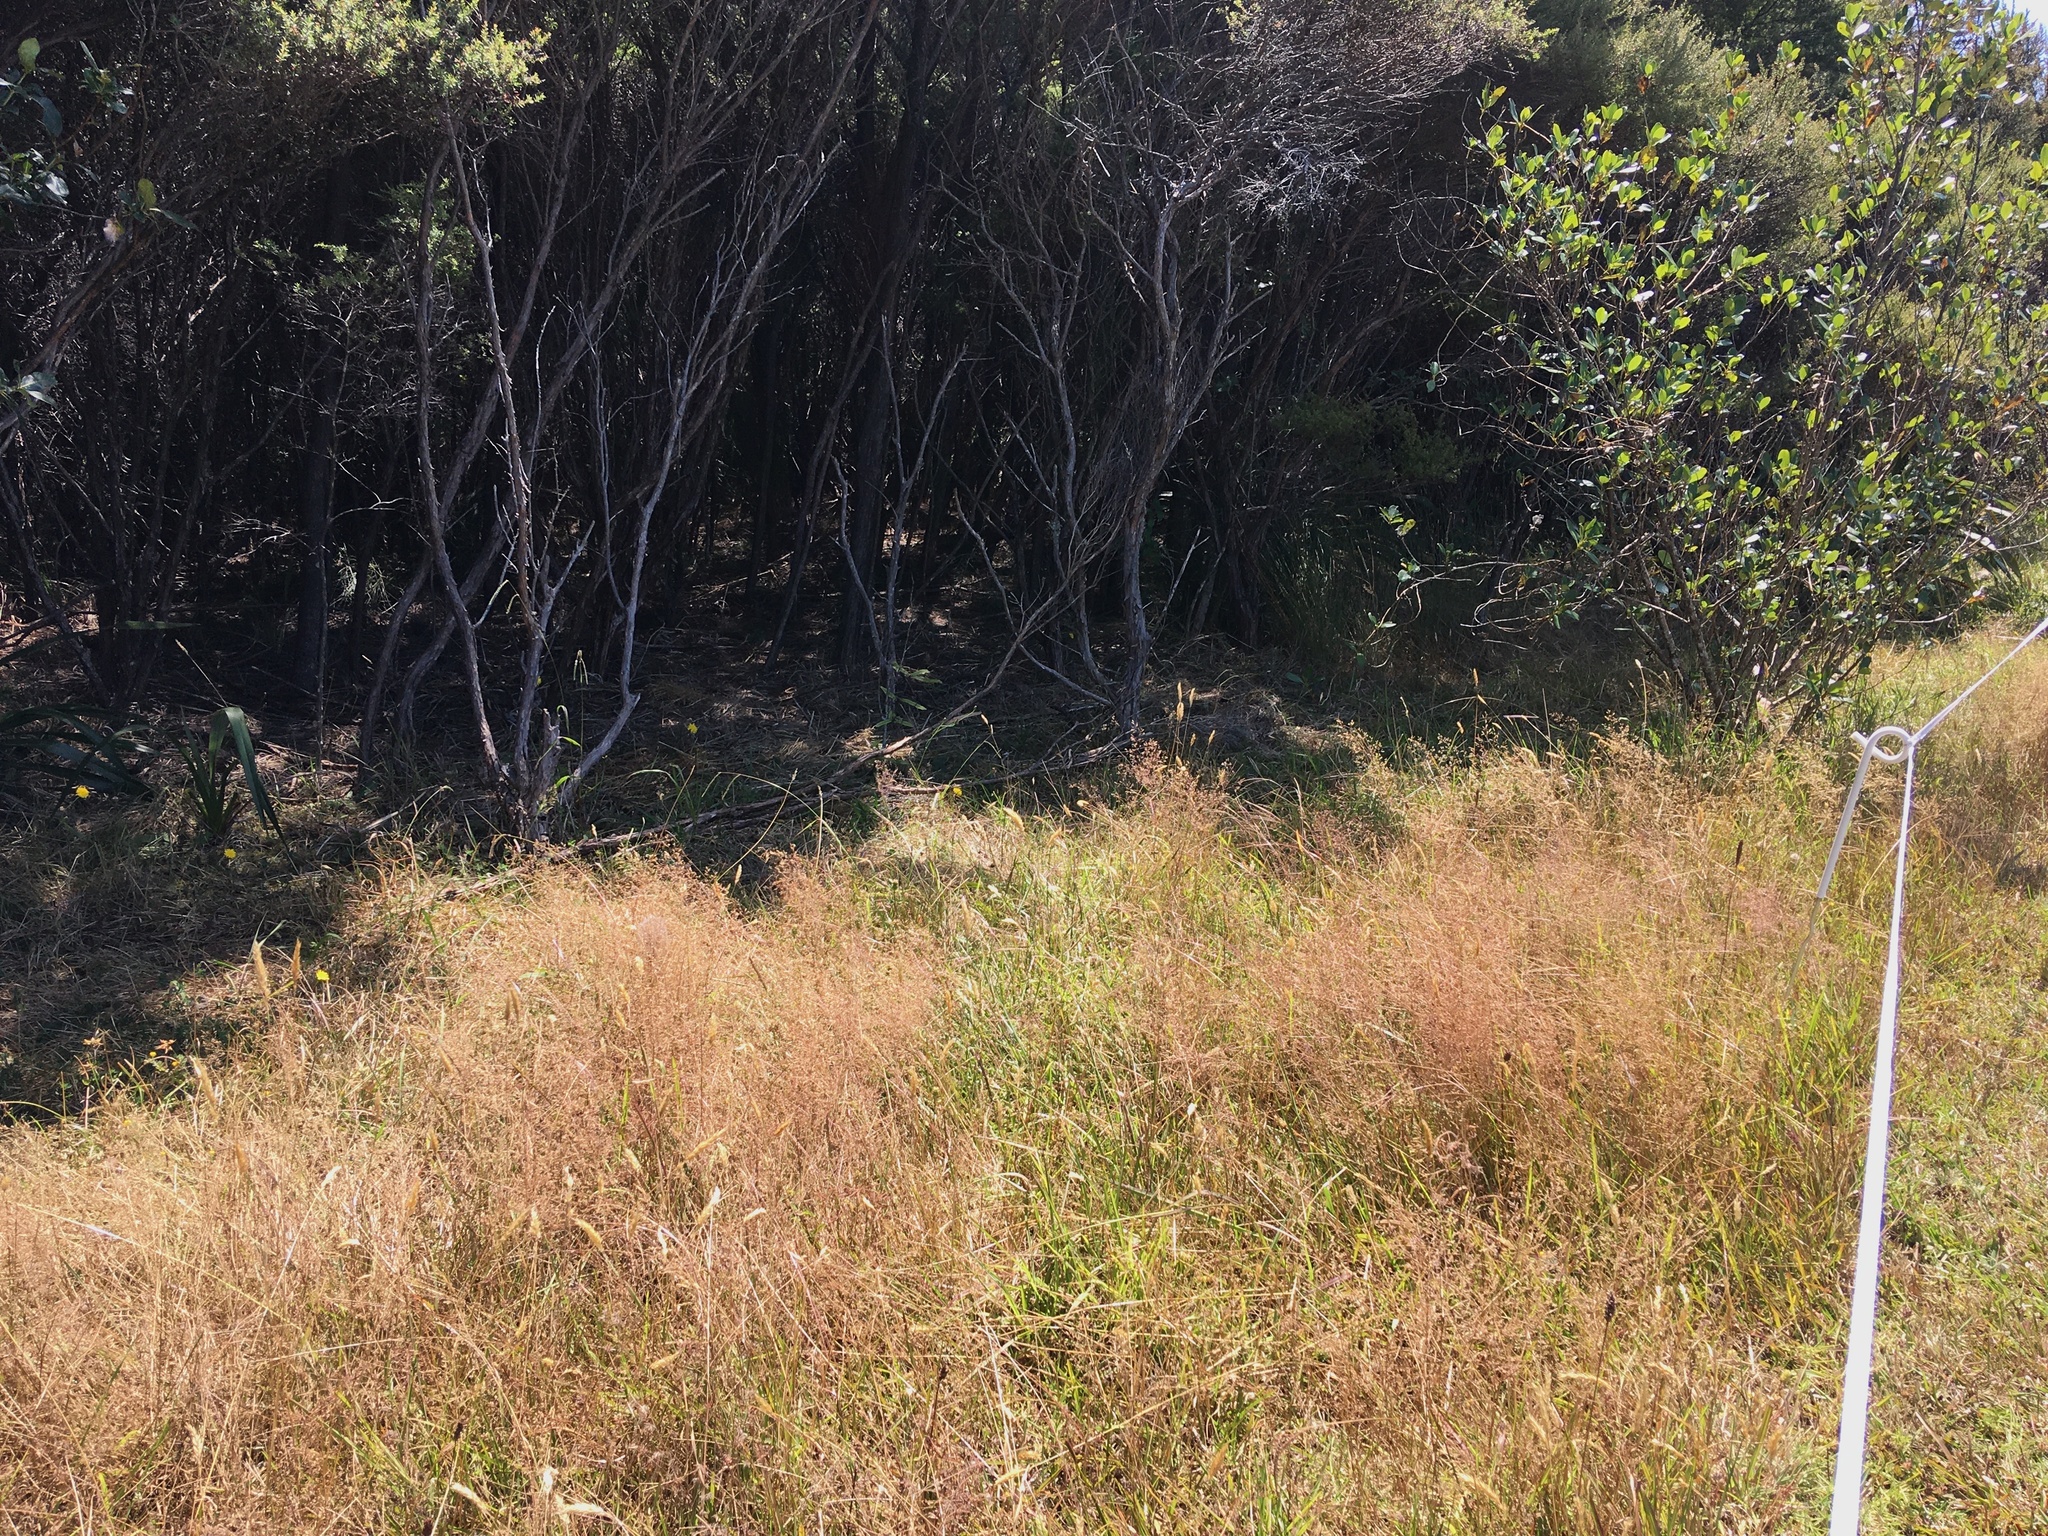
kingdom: Plantae
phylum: Tracheophyta
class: Magnoliopsida
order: Proteales
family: Proteaceae
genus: Knightia
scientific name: Knightia excelsa
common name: New zealand-honeysuckle
